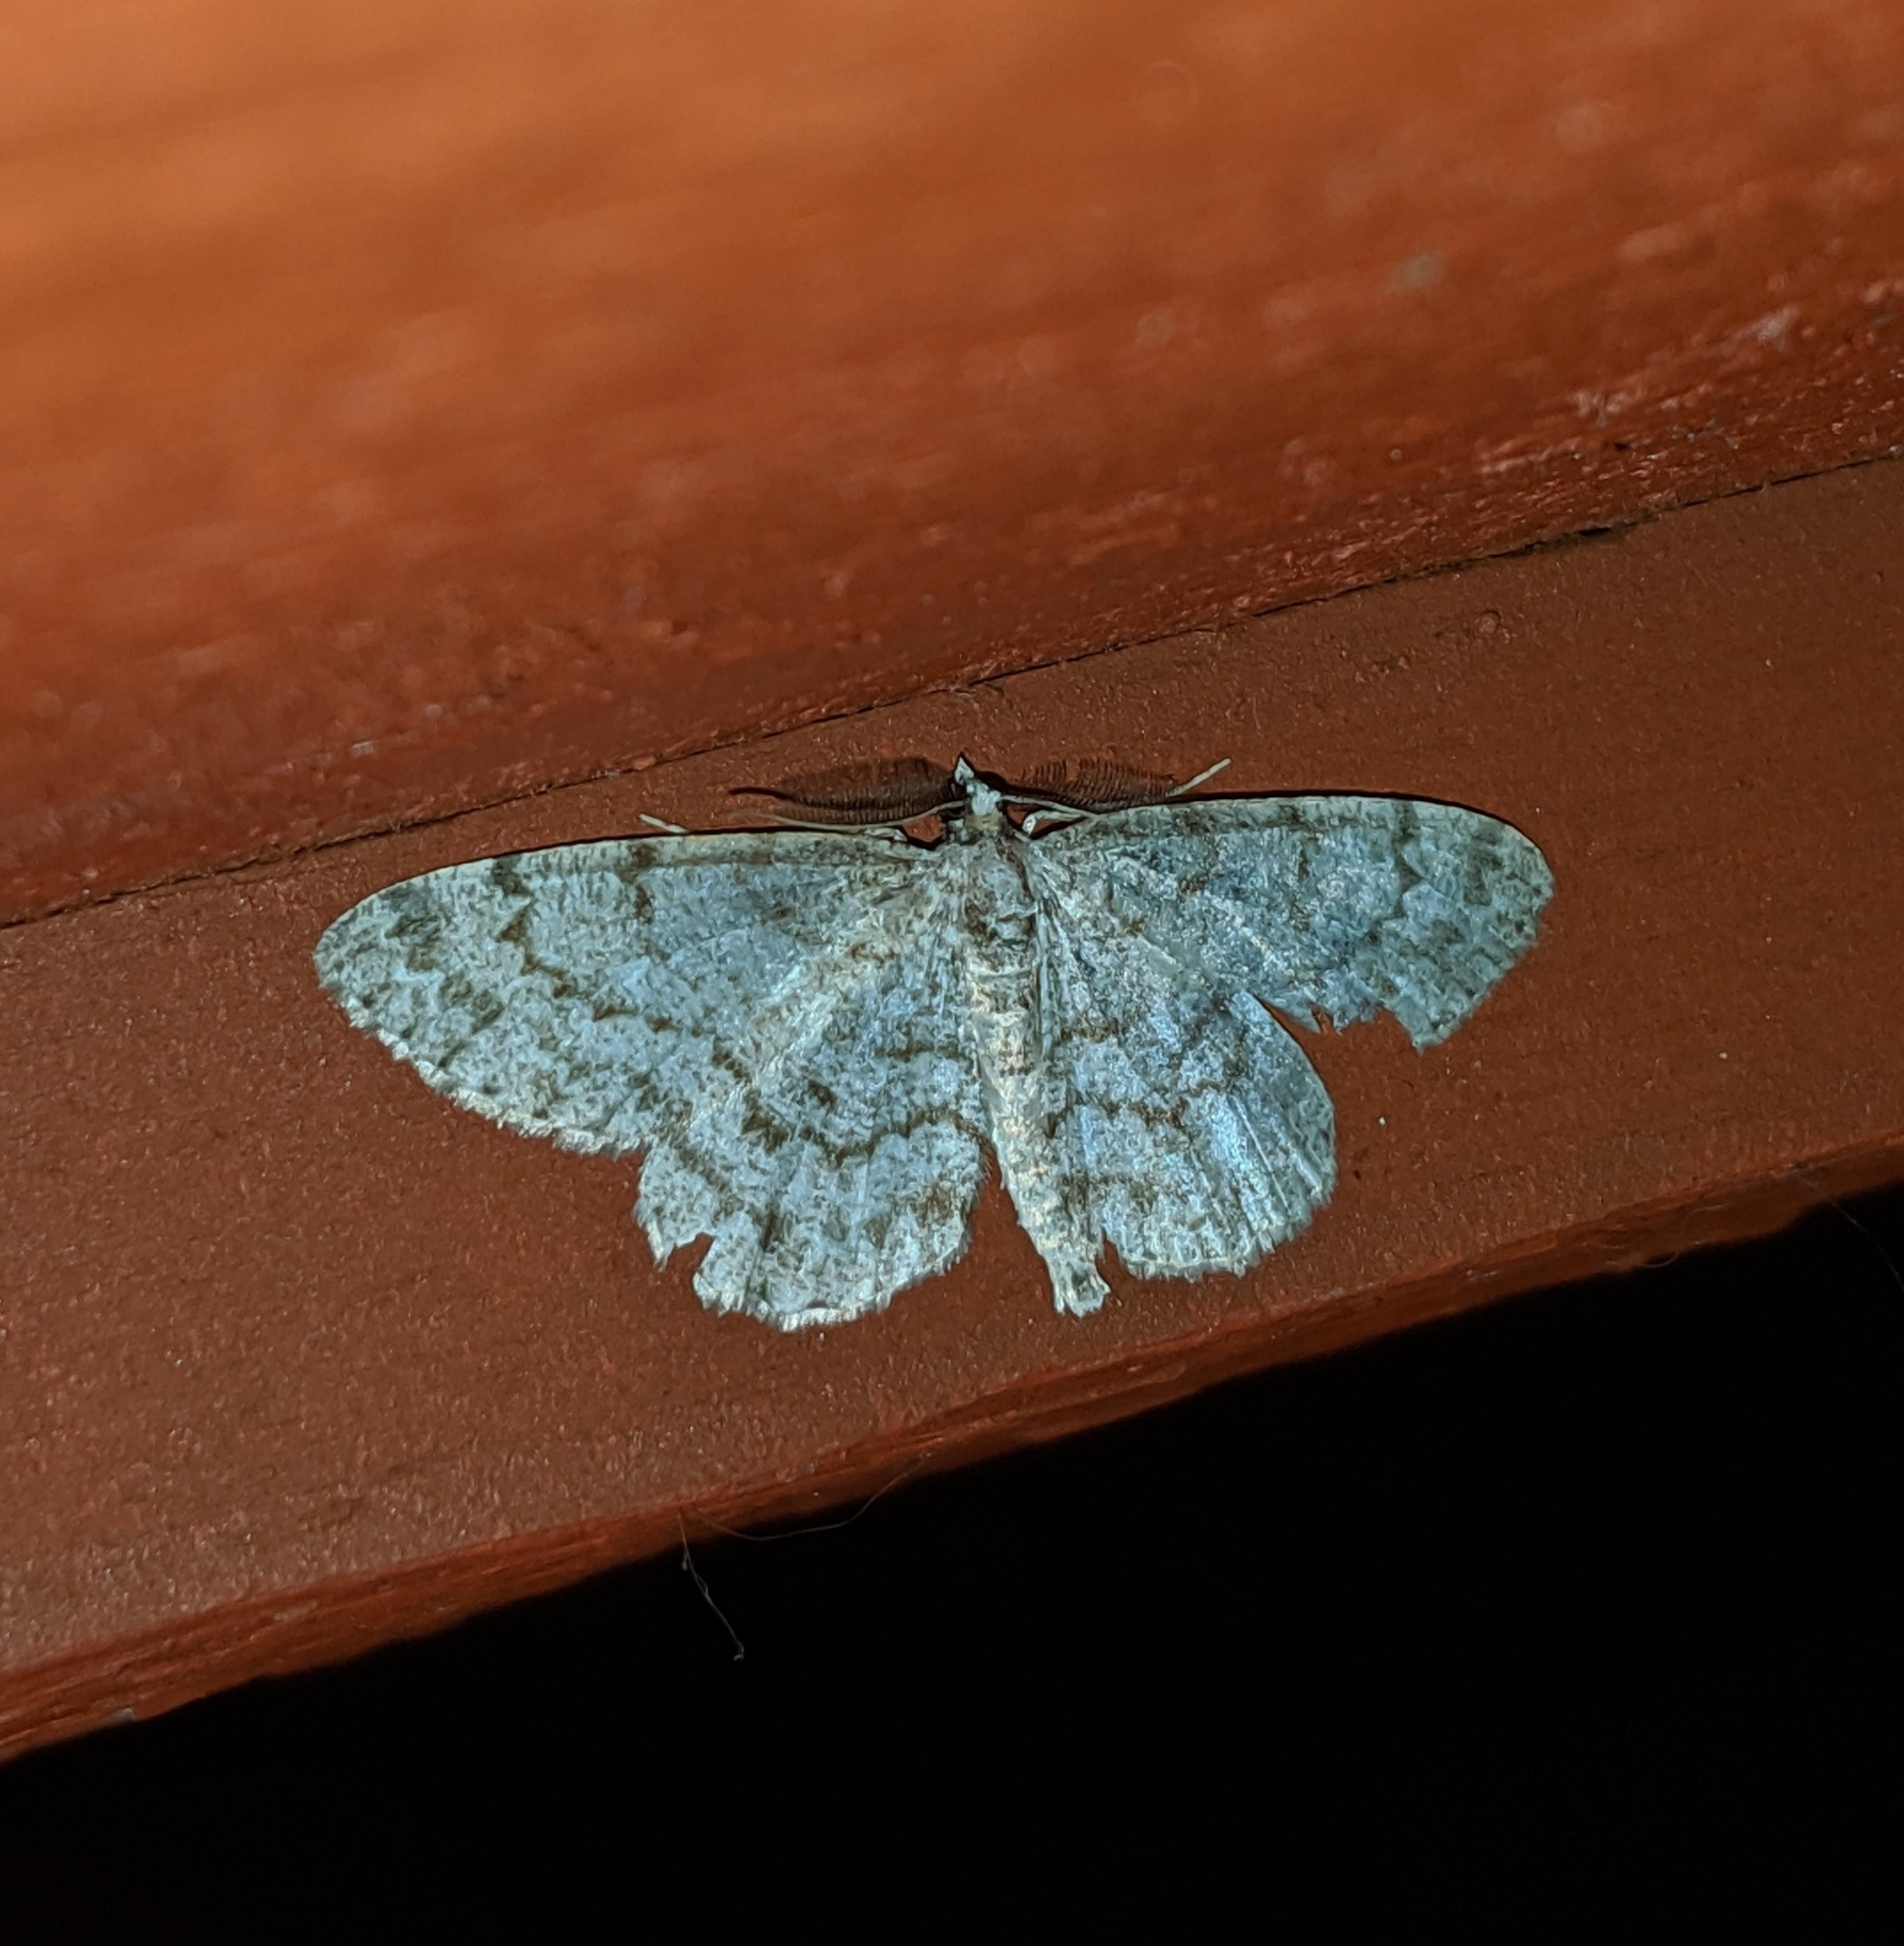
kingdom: Animalia
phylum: Arthropoda
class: Insecta
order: Lepidoptera
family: Geometridae
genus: Protoboarmia
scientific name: Protoboarmia porcelaria
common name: Porcelain gray
